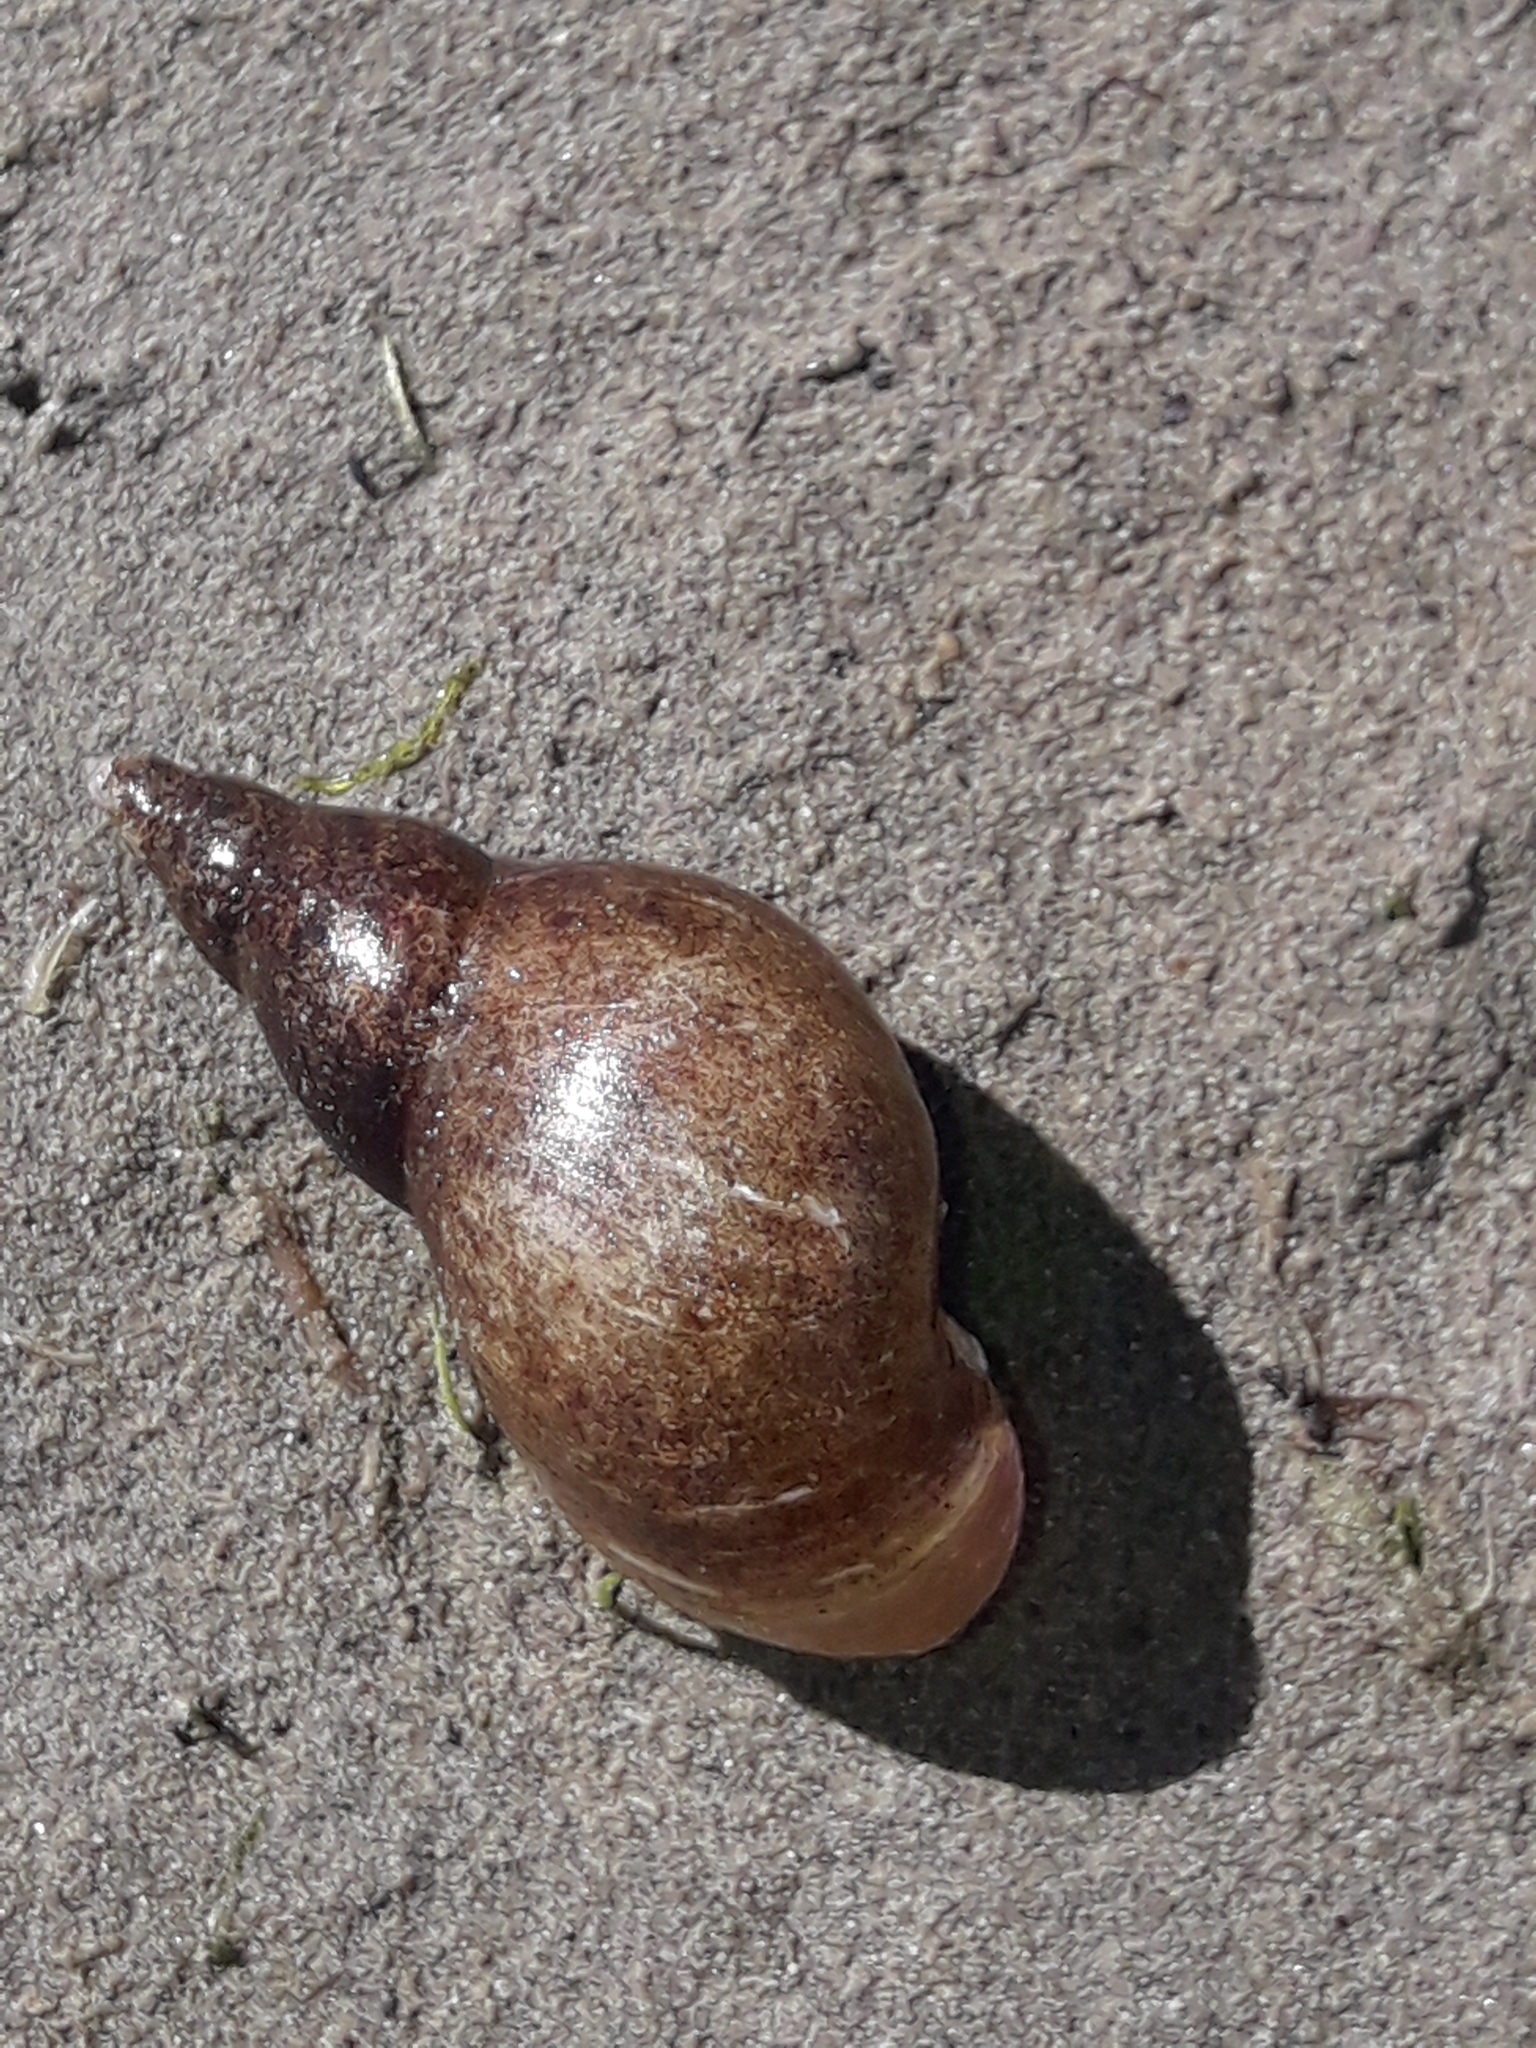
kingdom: Animalia
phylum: Mollusca
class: Gastropoda
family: Lymnaeidae
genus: Lymnaea
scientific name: Lymnaea stagnalis
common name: Great pond snail
